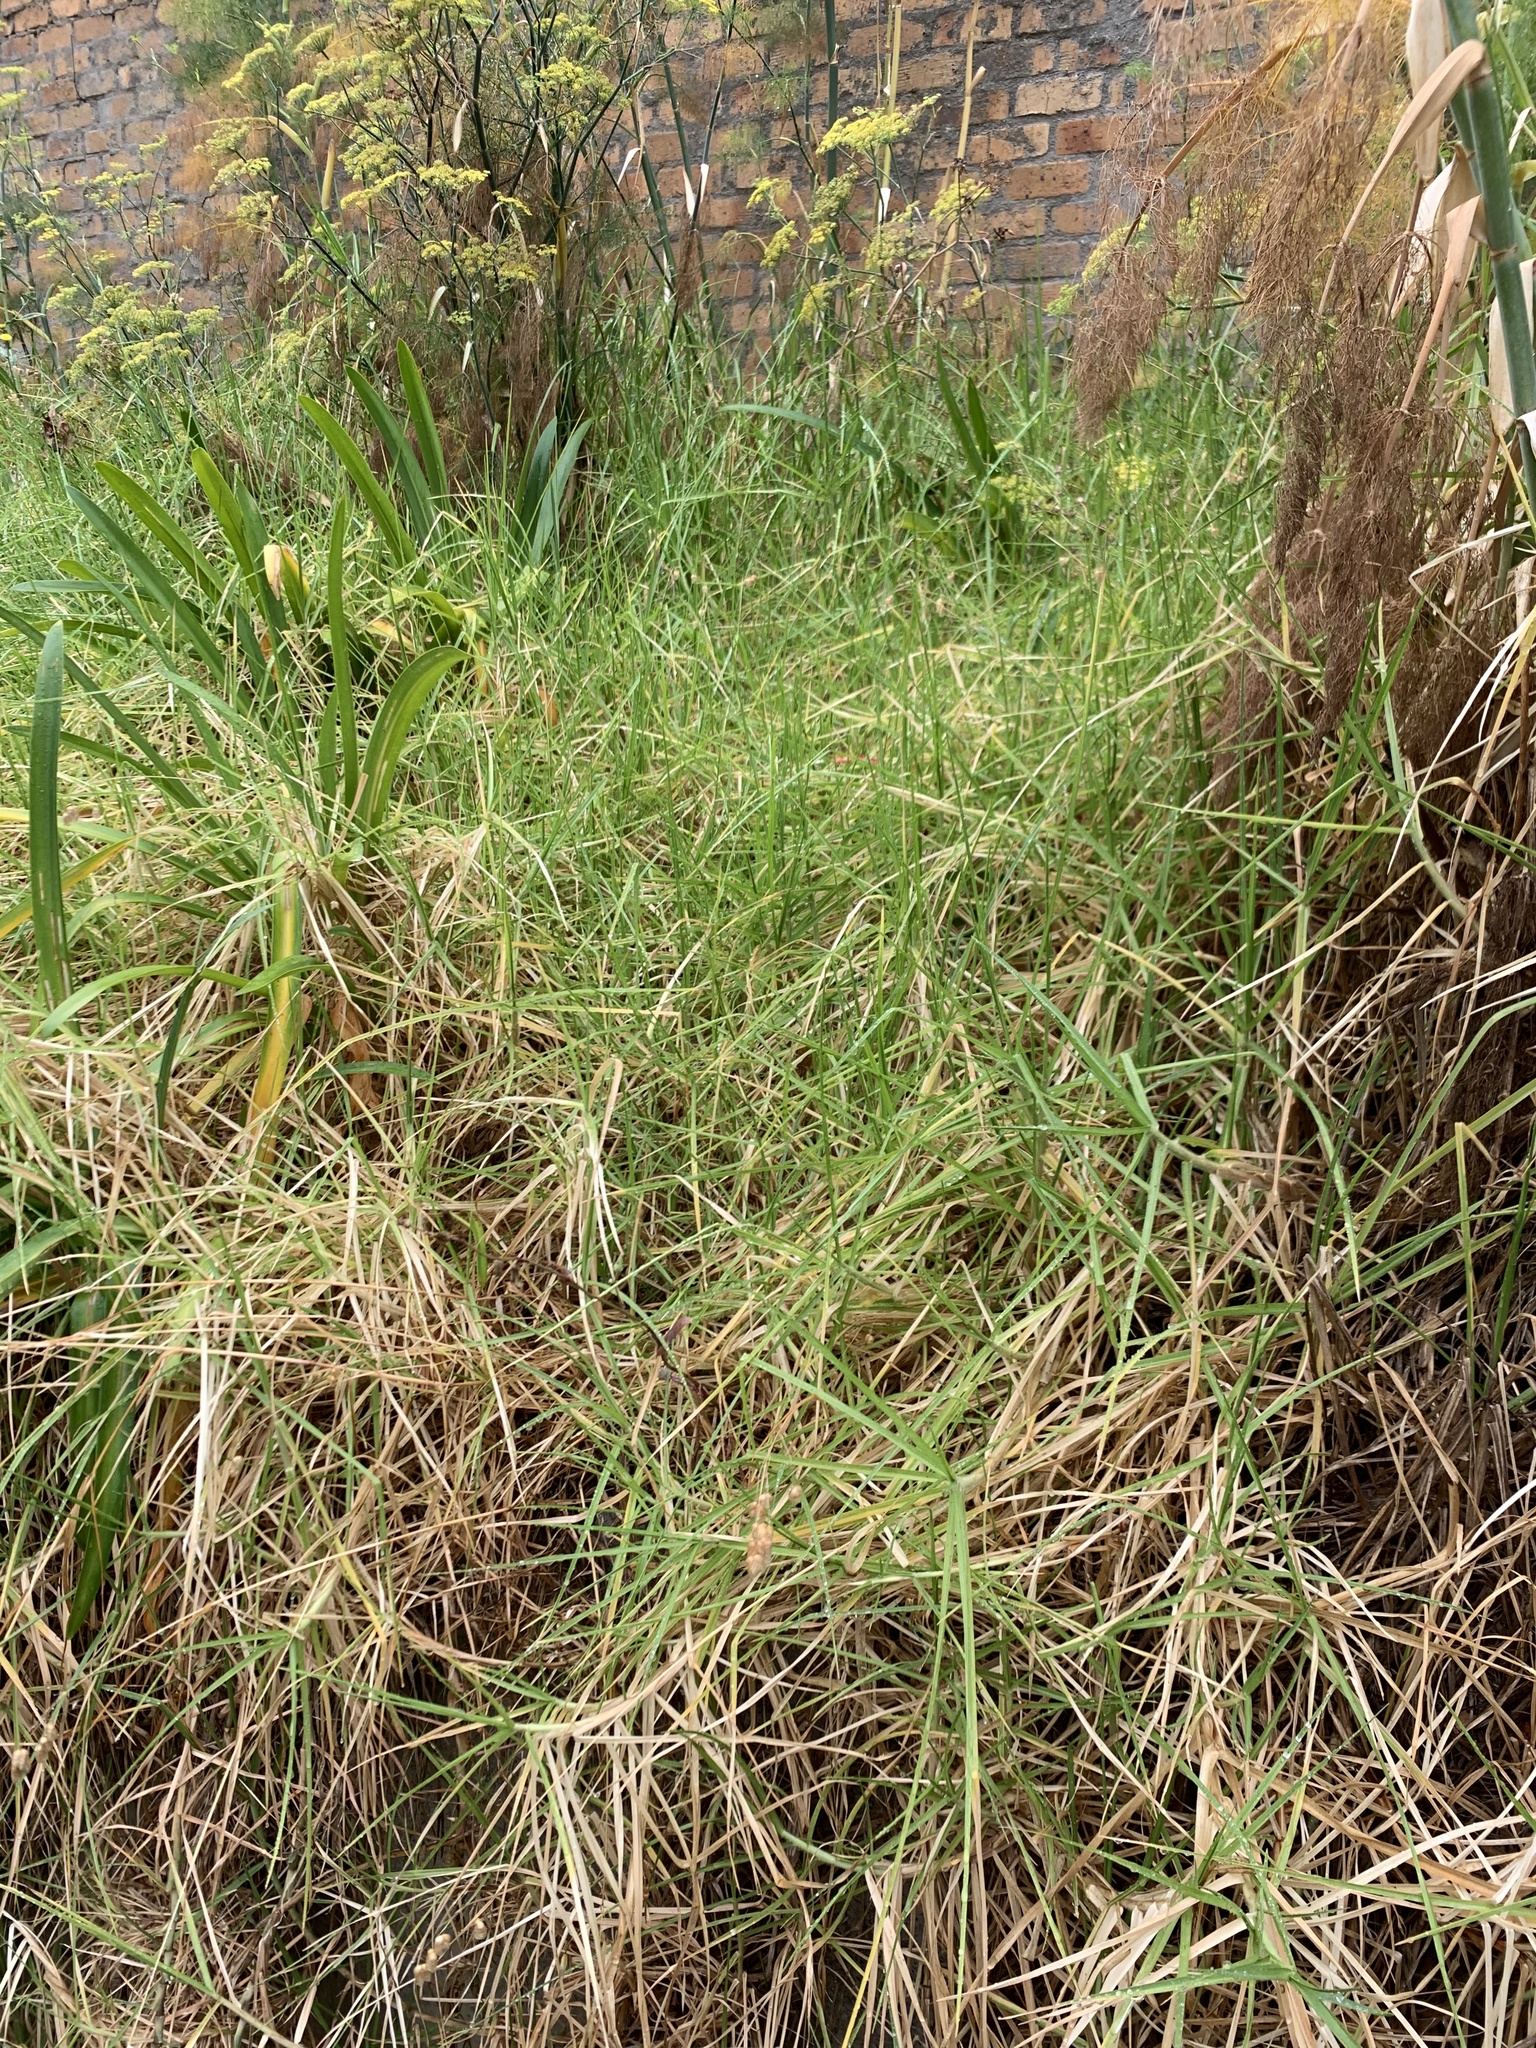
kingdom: Plantae
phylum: Tracheophyta
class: Liliopsida
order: Poales
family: Poaceae
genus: Cenchrus
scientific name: Cenchrus clandestinus
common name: Kikuyugrass
